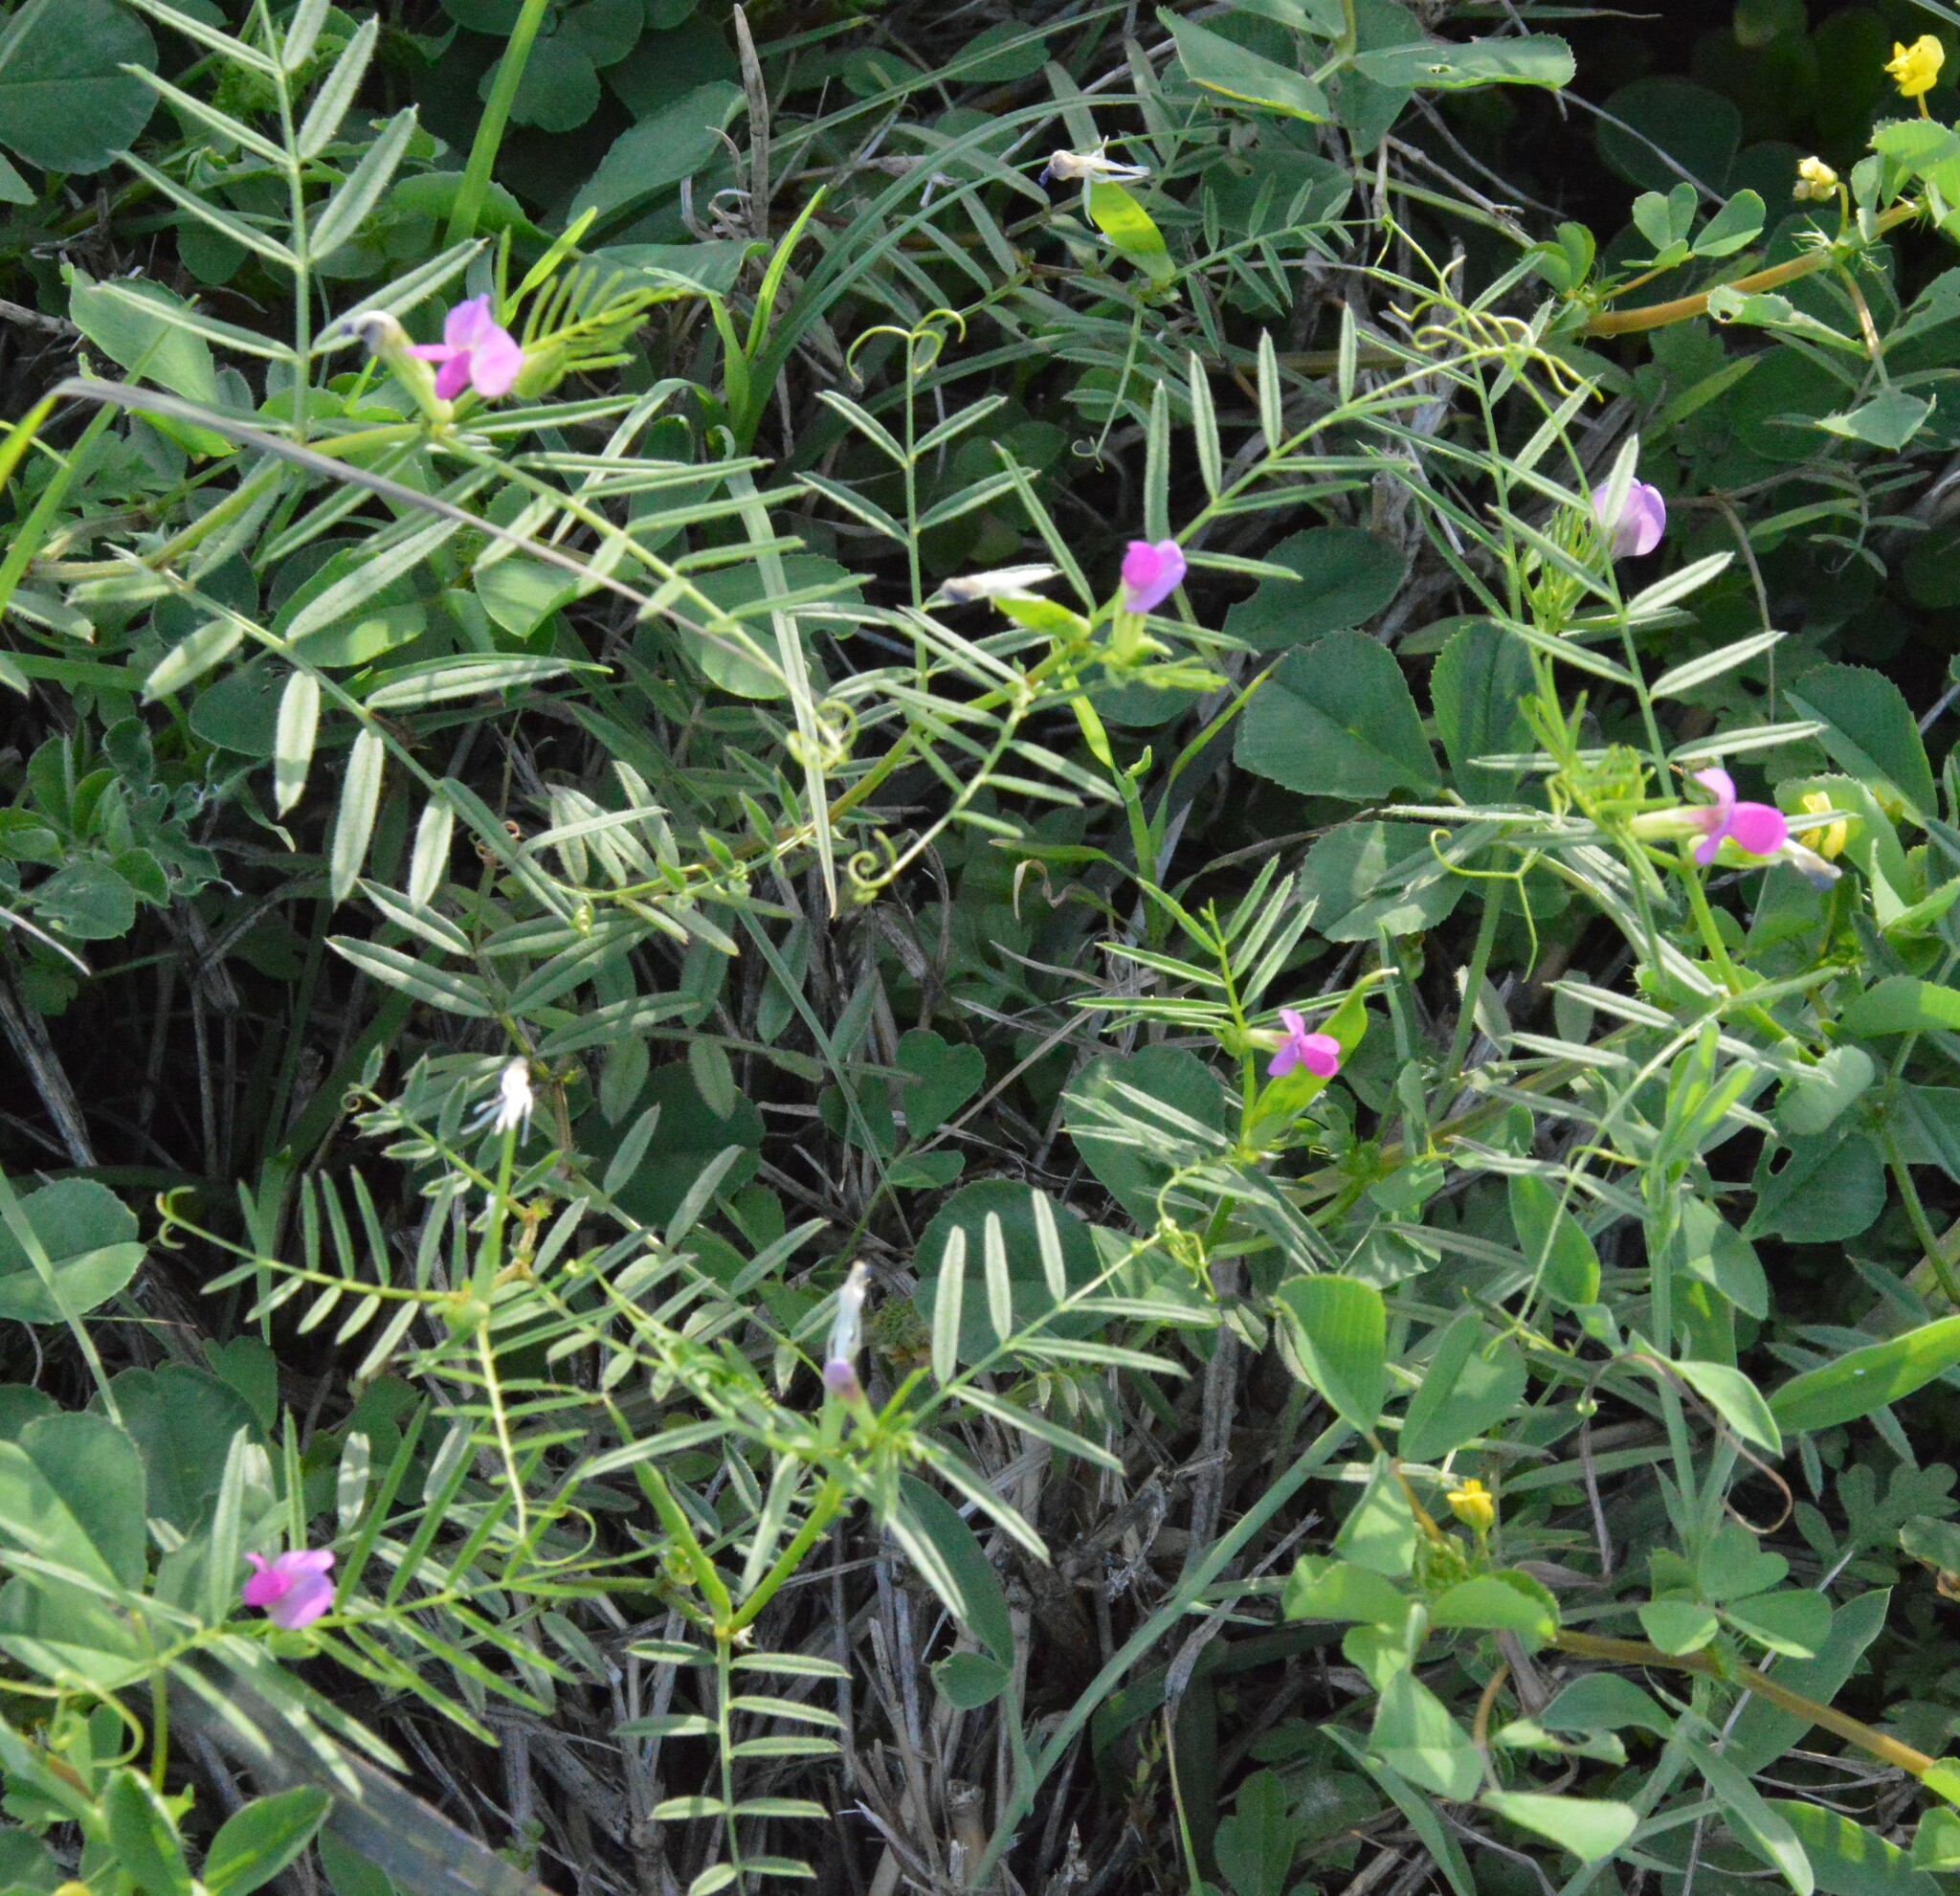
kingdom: Plantae
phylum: Tracheophyta
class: Magnoliopsida
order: Fabales
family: Fabaceae
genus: Vicia
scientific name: Vicia sativa
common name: Garden vetch
